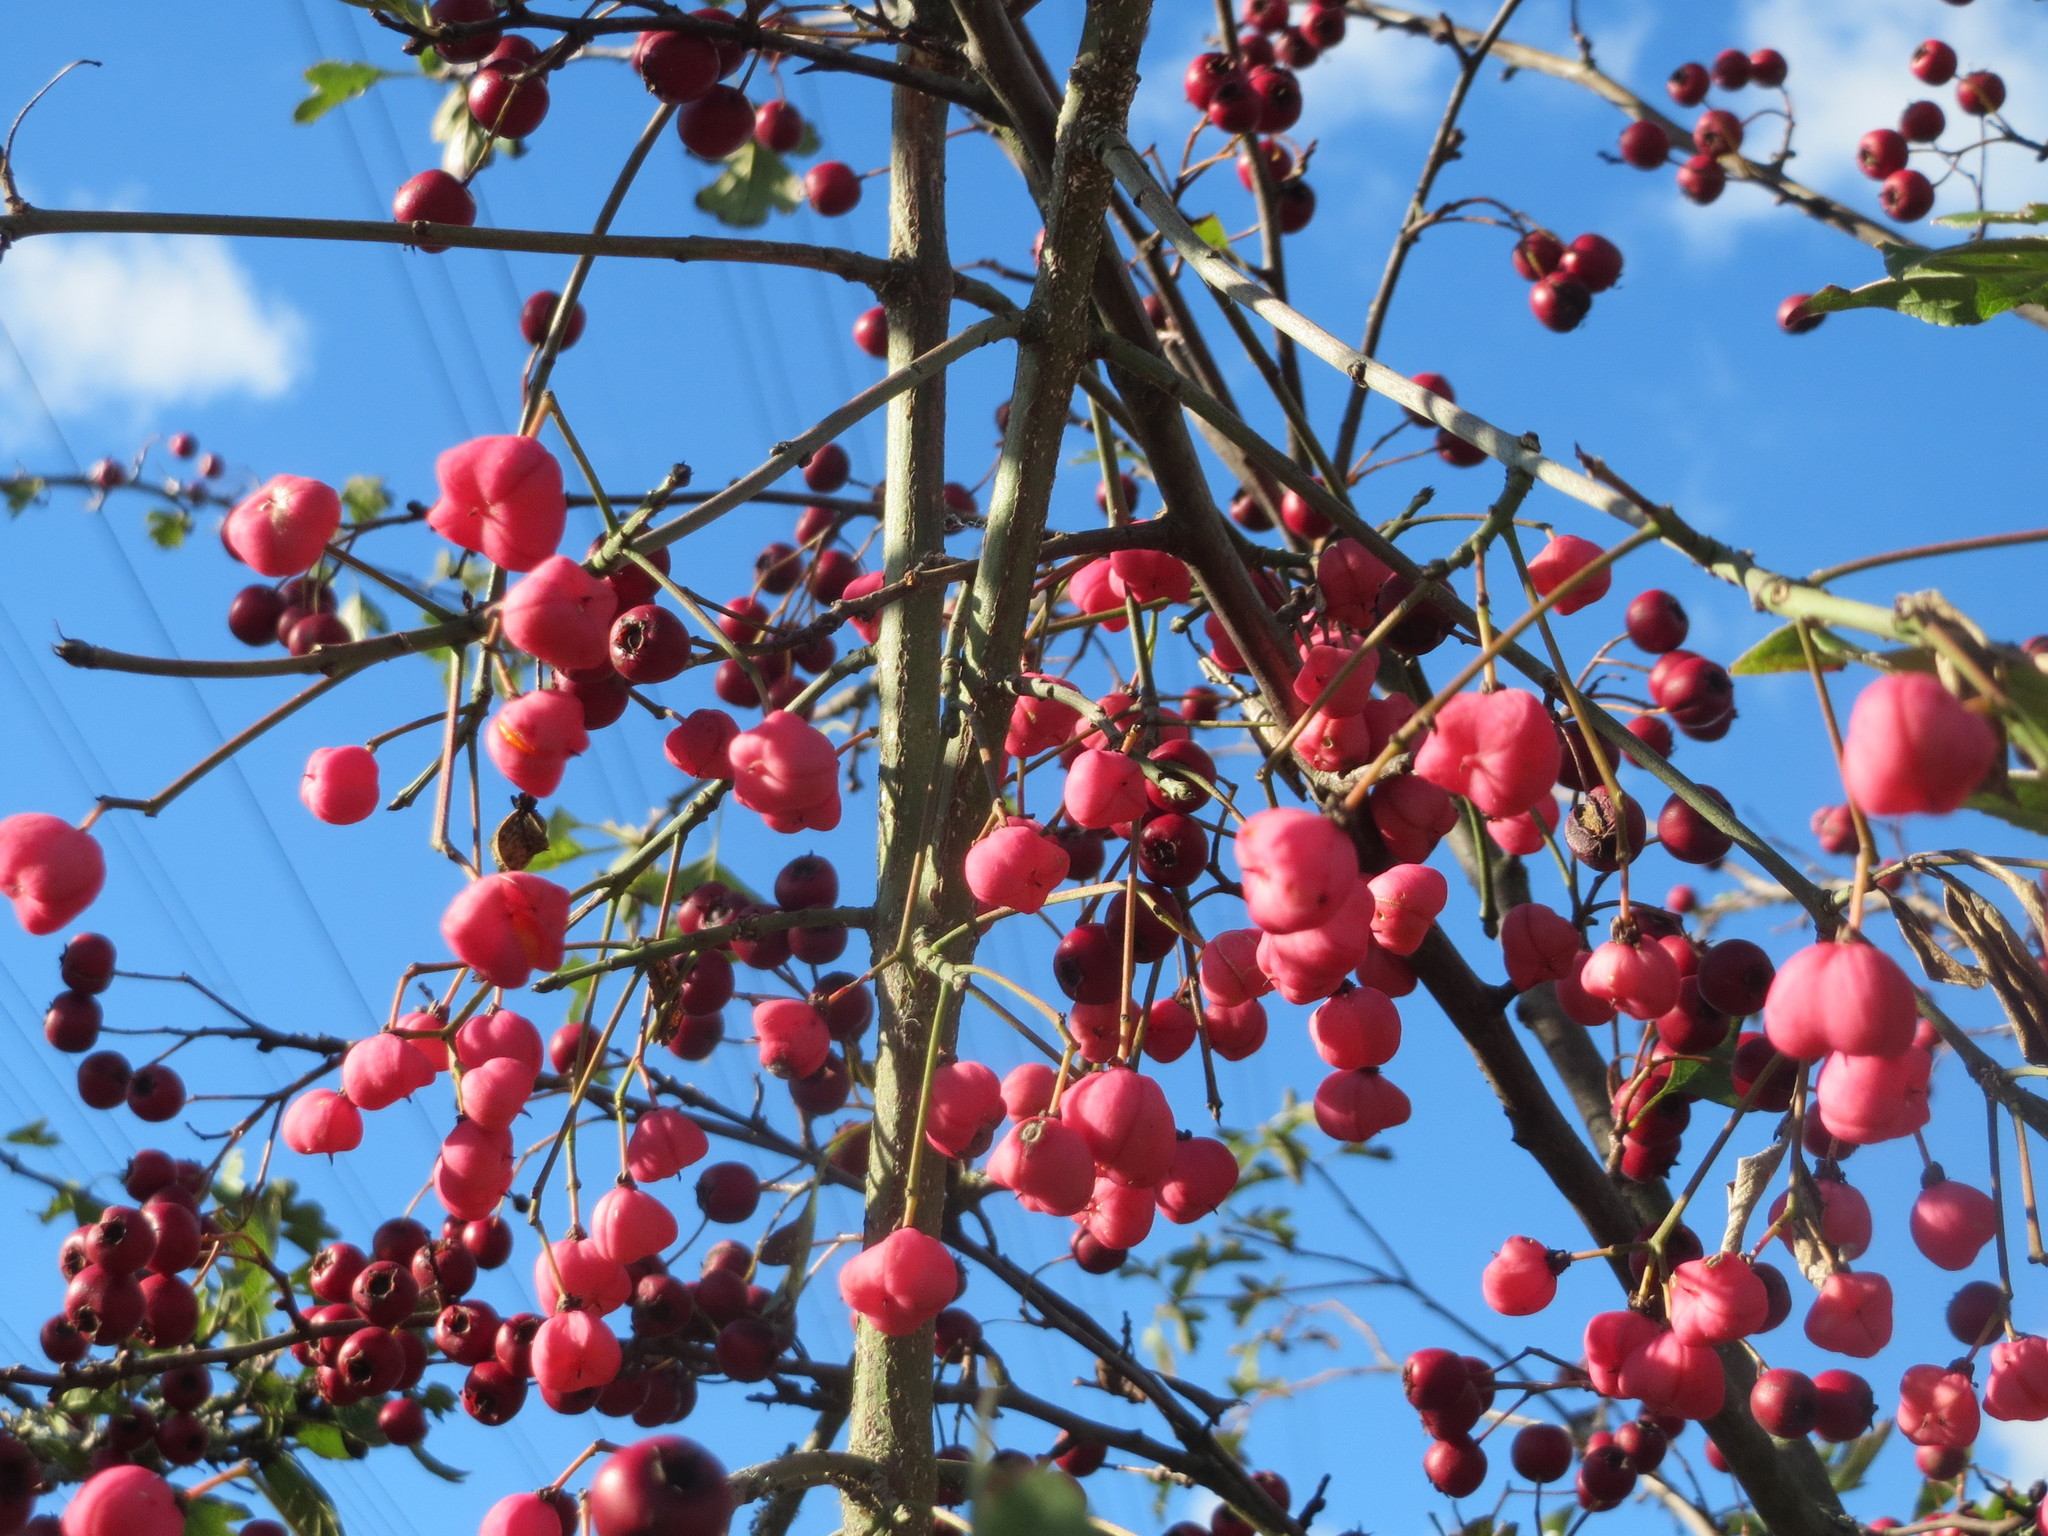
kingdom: Plantae
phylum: Tracheophyta
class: Magnoliopsida
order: Celastrales
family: Celastraceae
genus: Euonymus
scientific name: Euonymus europaeus
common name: Spindle
